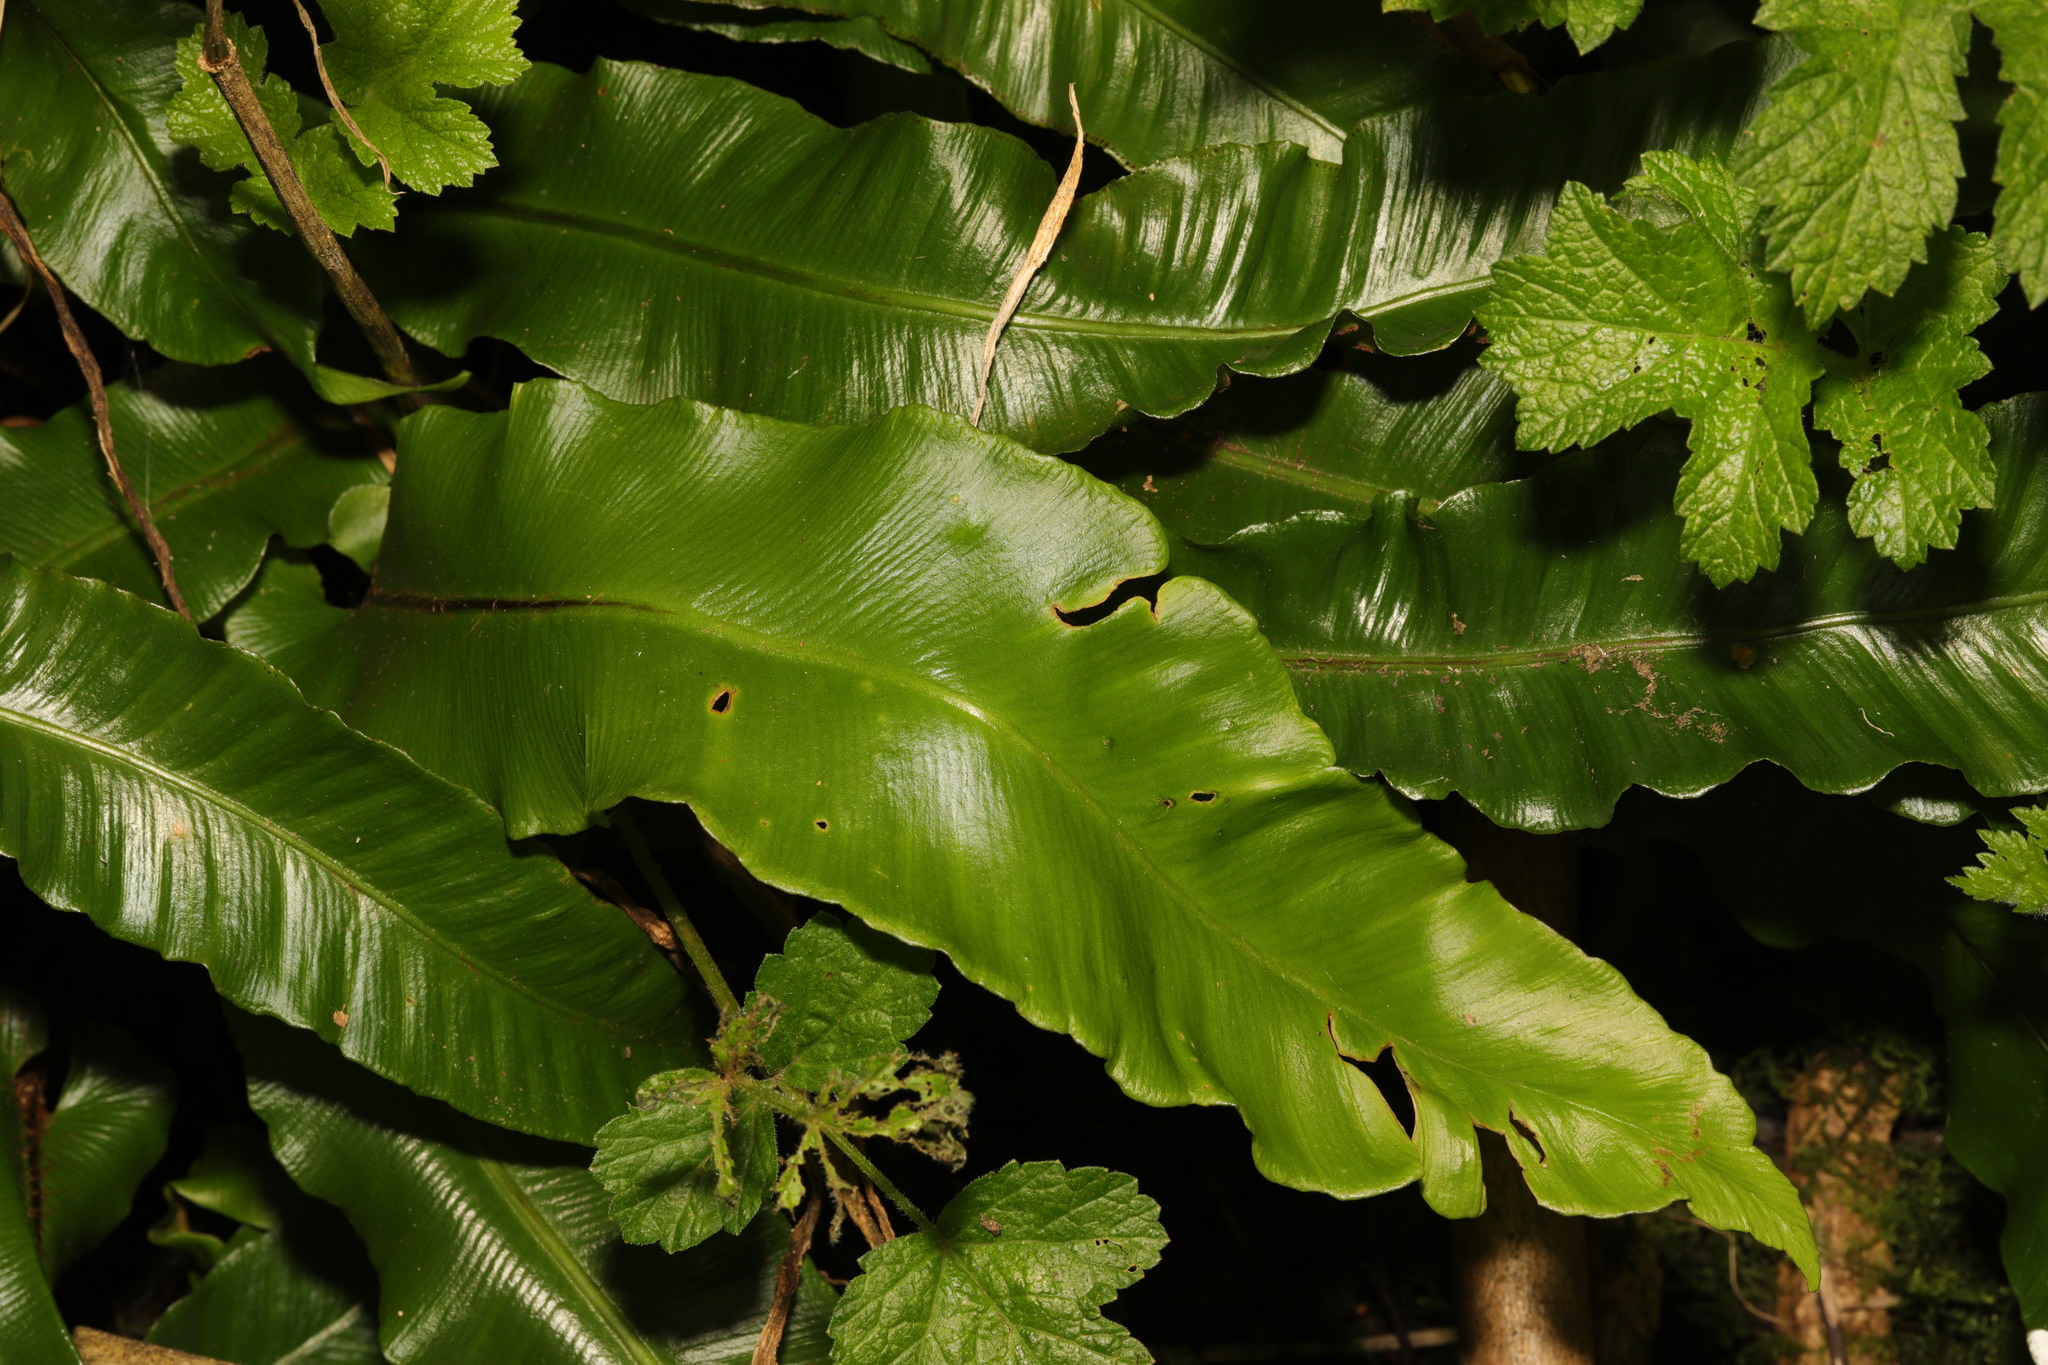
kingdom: Plantae
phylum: Tracheophyta
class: Polypodiopsida
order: Polypodiales
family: Aspleniaceae
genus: Asplenium
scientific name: Asplenium scolopendrium
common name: Hart's-tongue fern
